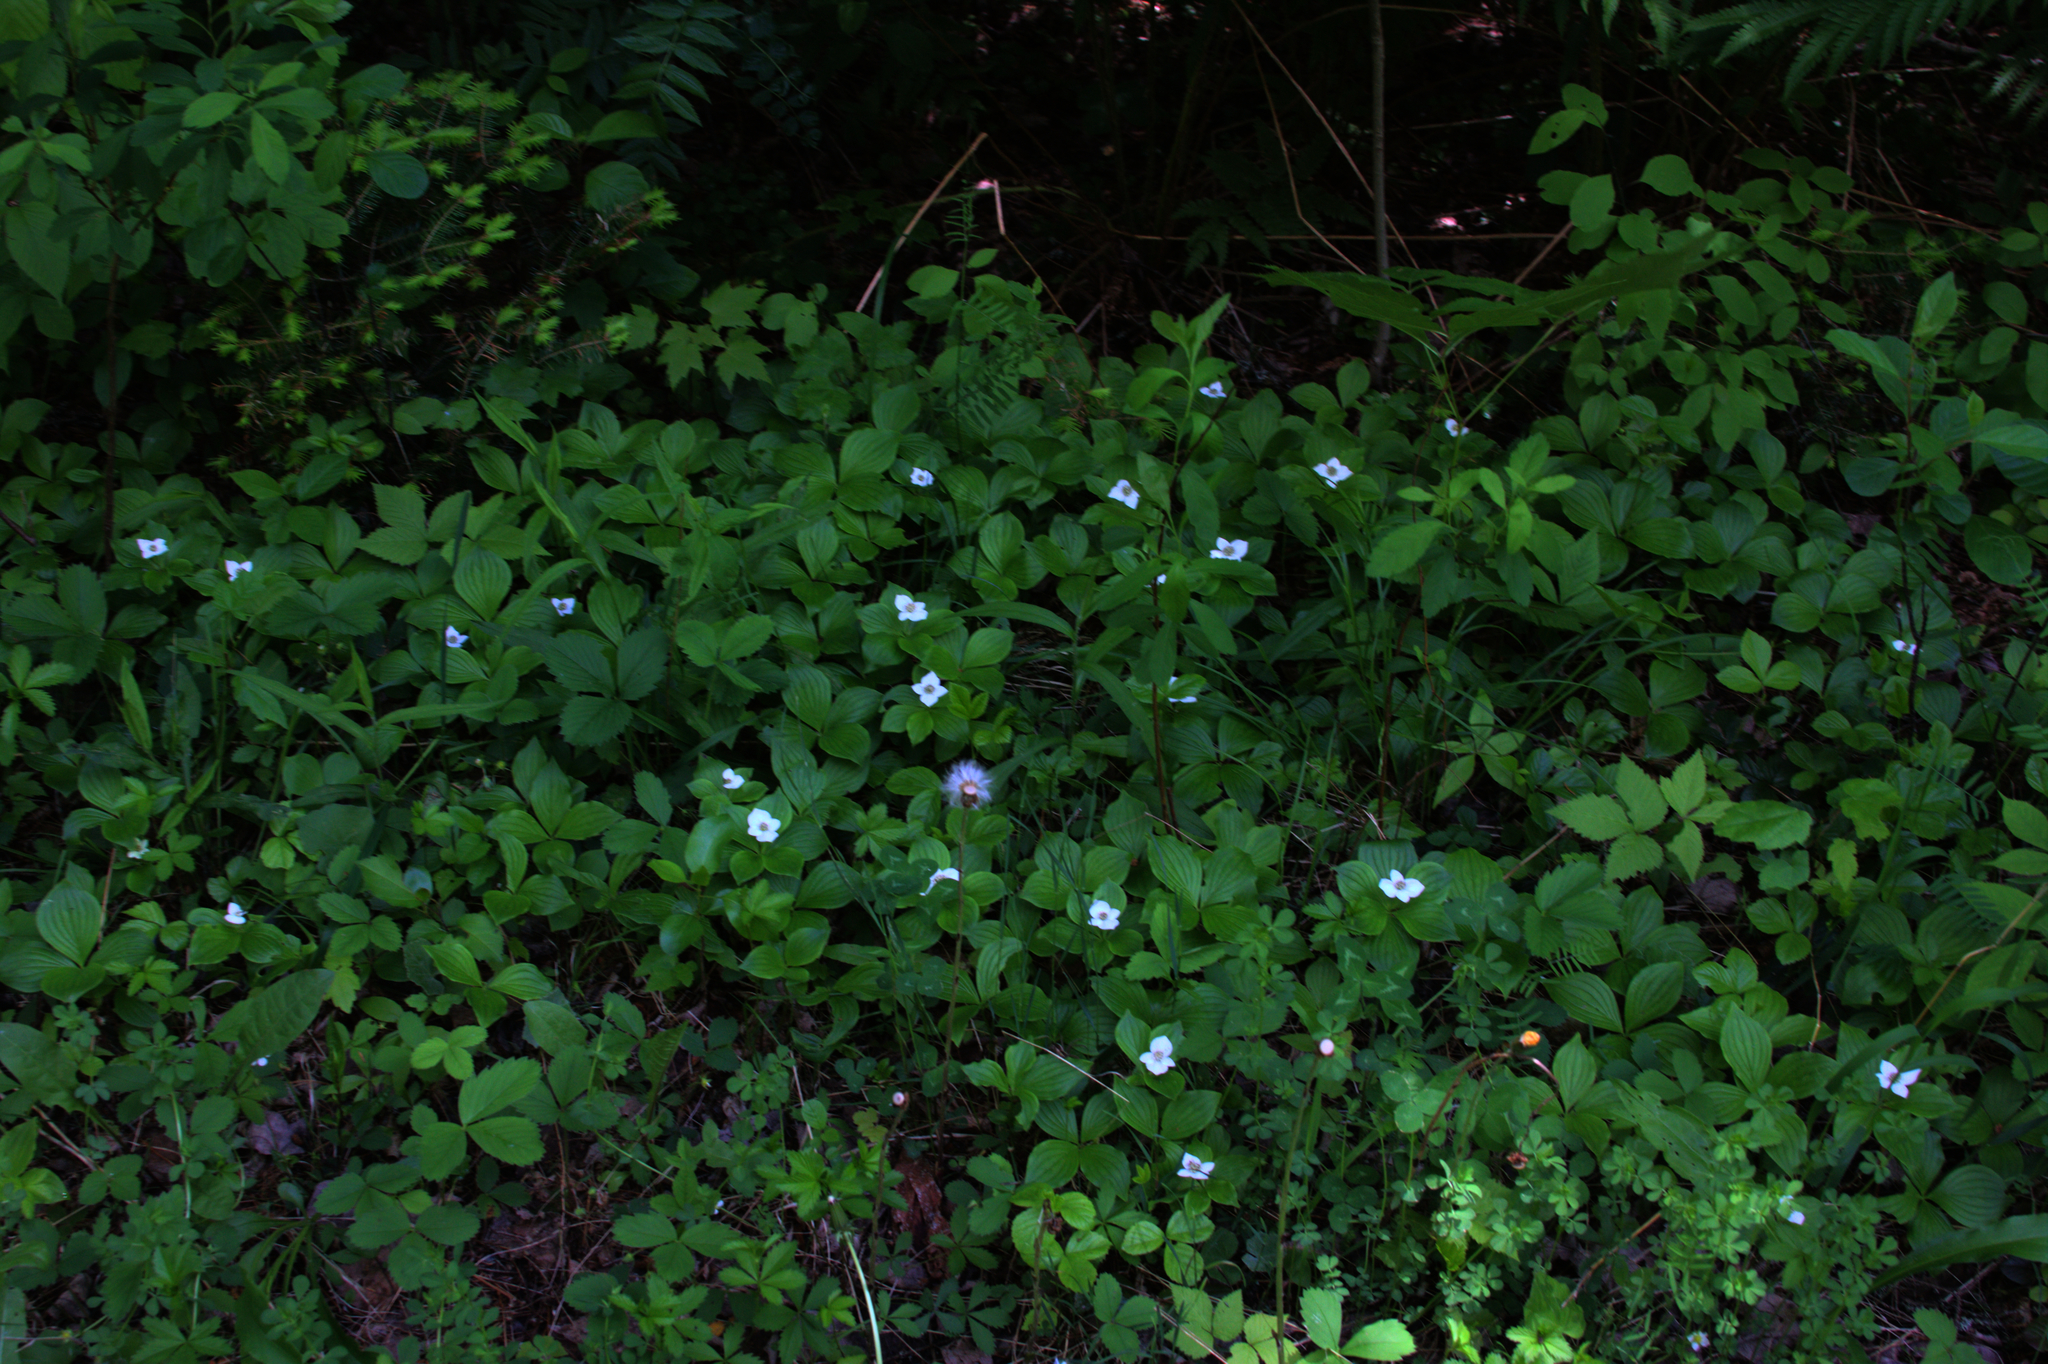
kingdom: Plantae
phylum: Tracheophyta
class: Magnoliopsida
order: Cornales
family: Cornaceae
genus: Cornus
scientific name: Cornus canadensis
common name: Creeping dogwood
